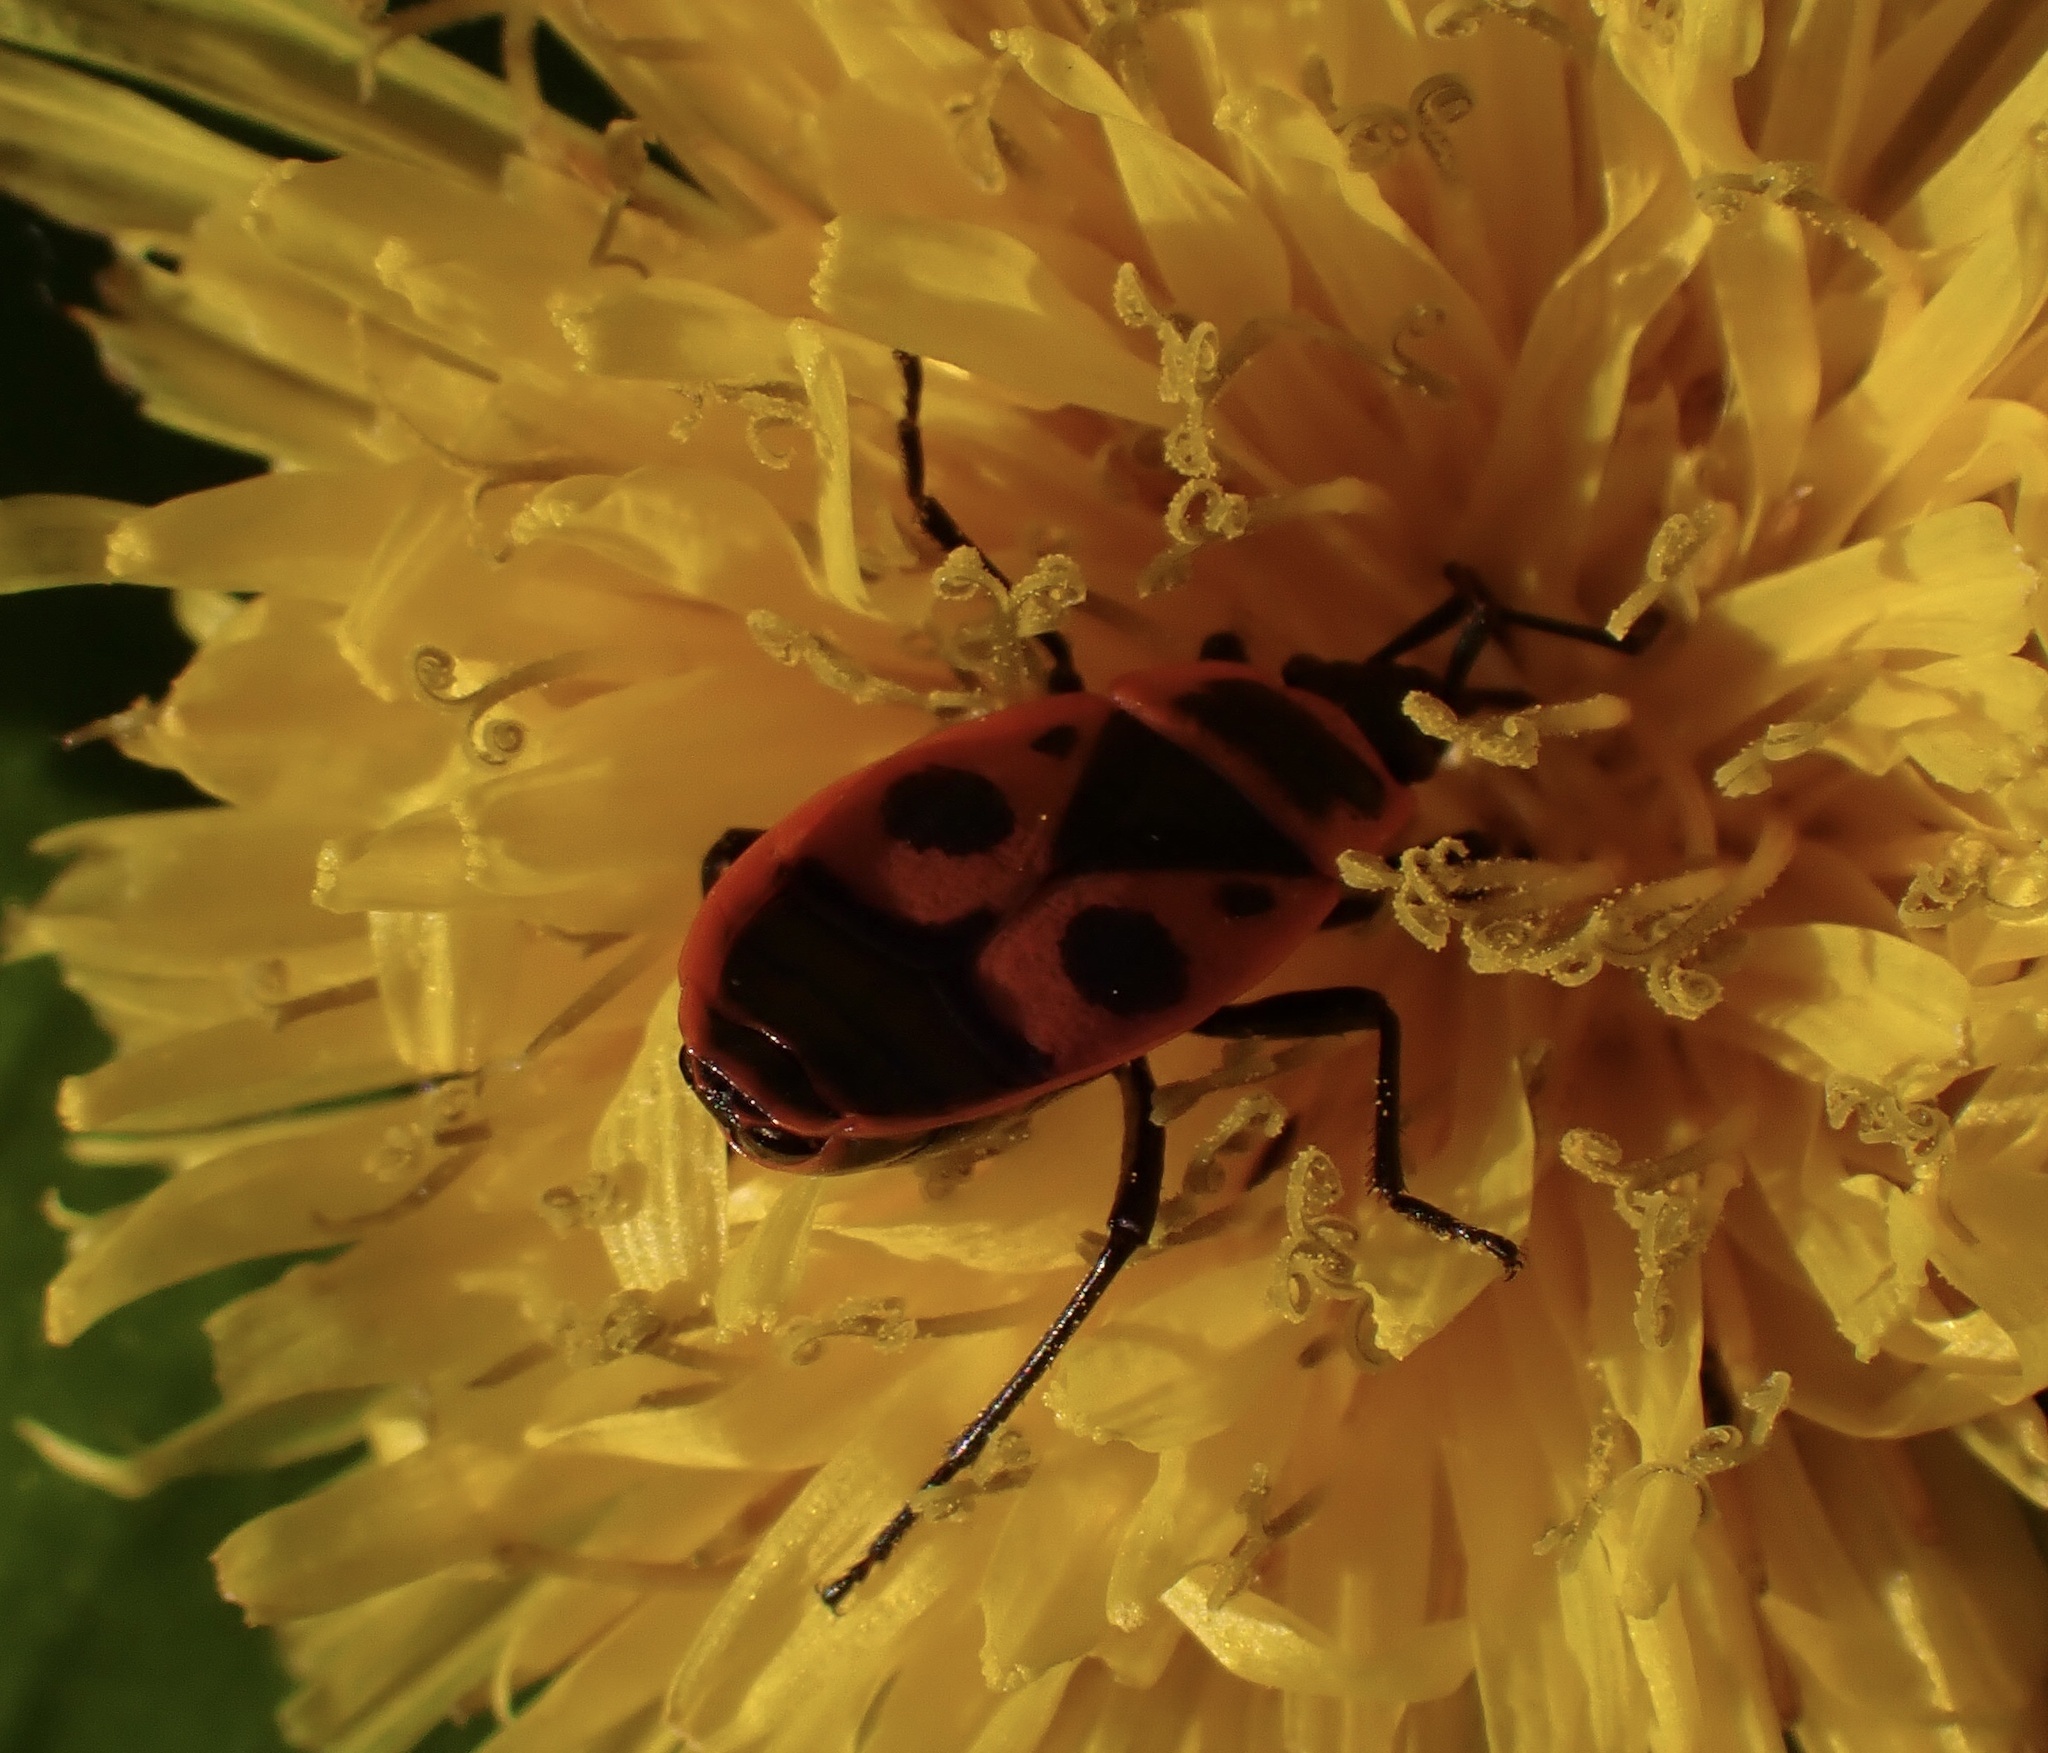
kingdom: Animalia
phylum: Arthropoda
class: Insecta
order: Hemiptera
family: Pyrrhocoridae
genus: Pyrrhocoris
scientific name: Pyrrhocoris apterus
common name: Firebug
